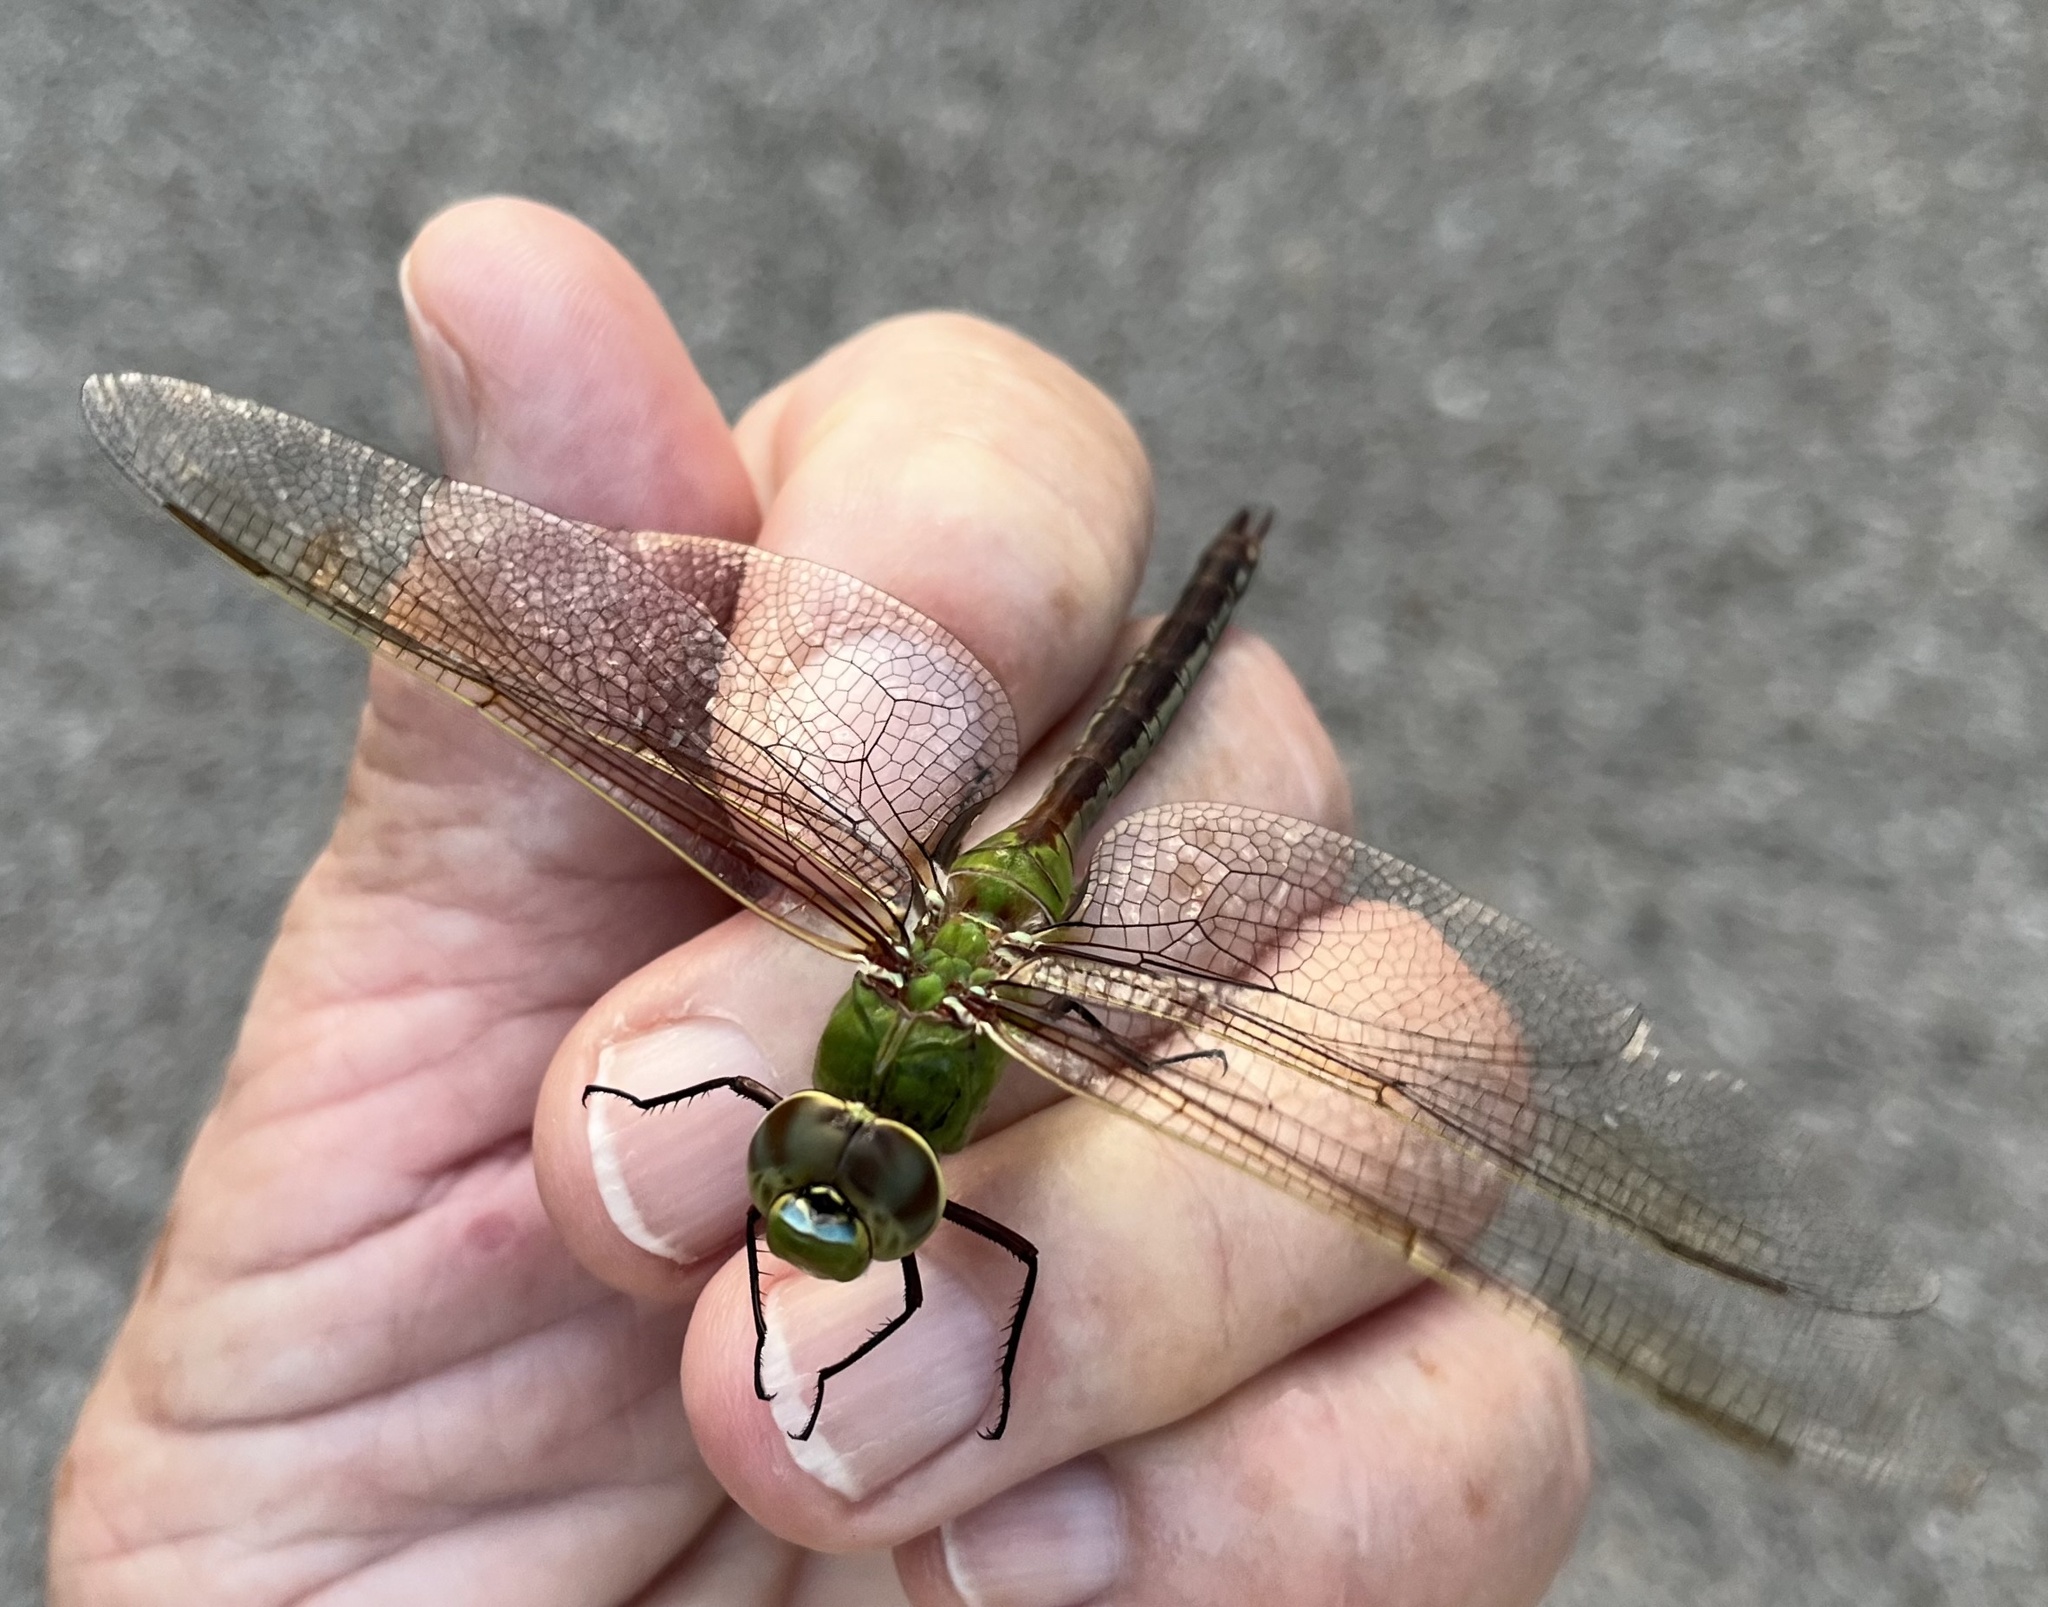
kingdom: Animalia
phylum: Arthropoda
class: Insecta
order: Odonata
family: Aeshnidae
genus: Anax
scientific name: Anax junius
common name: Common green darner
